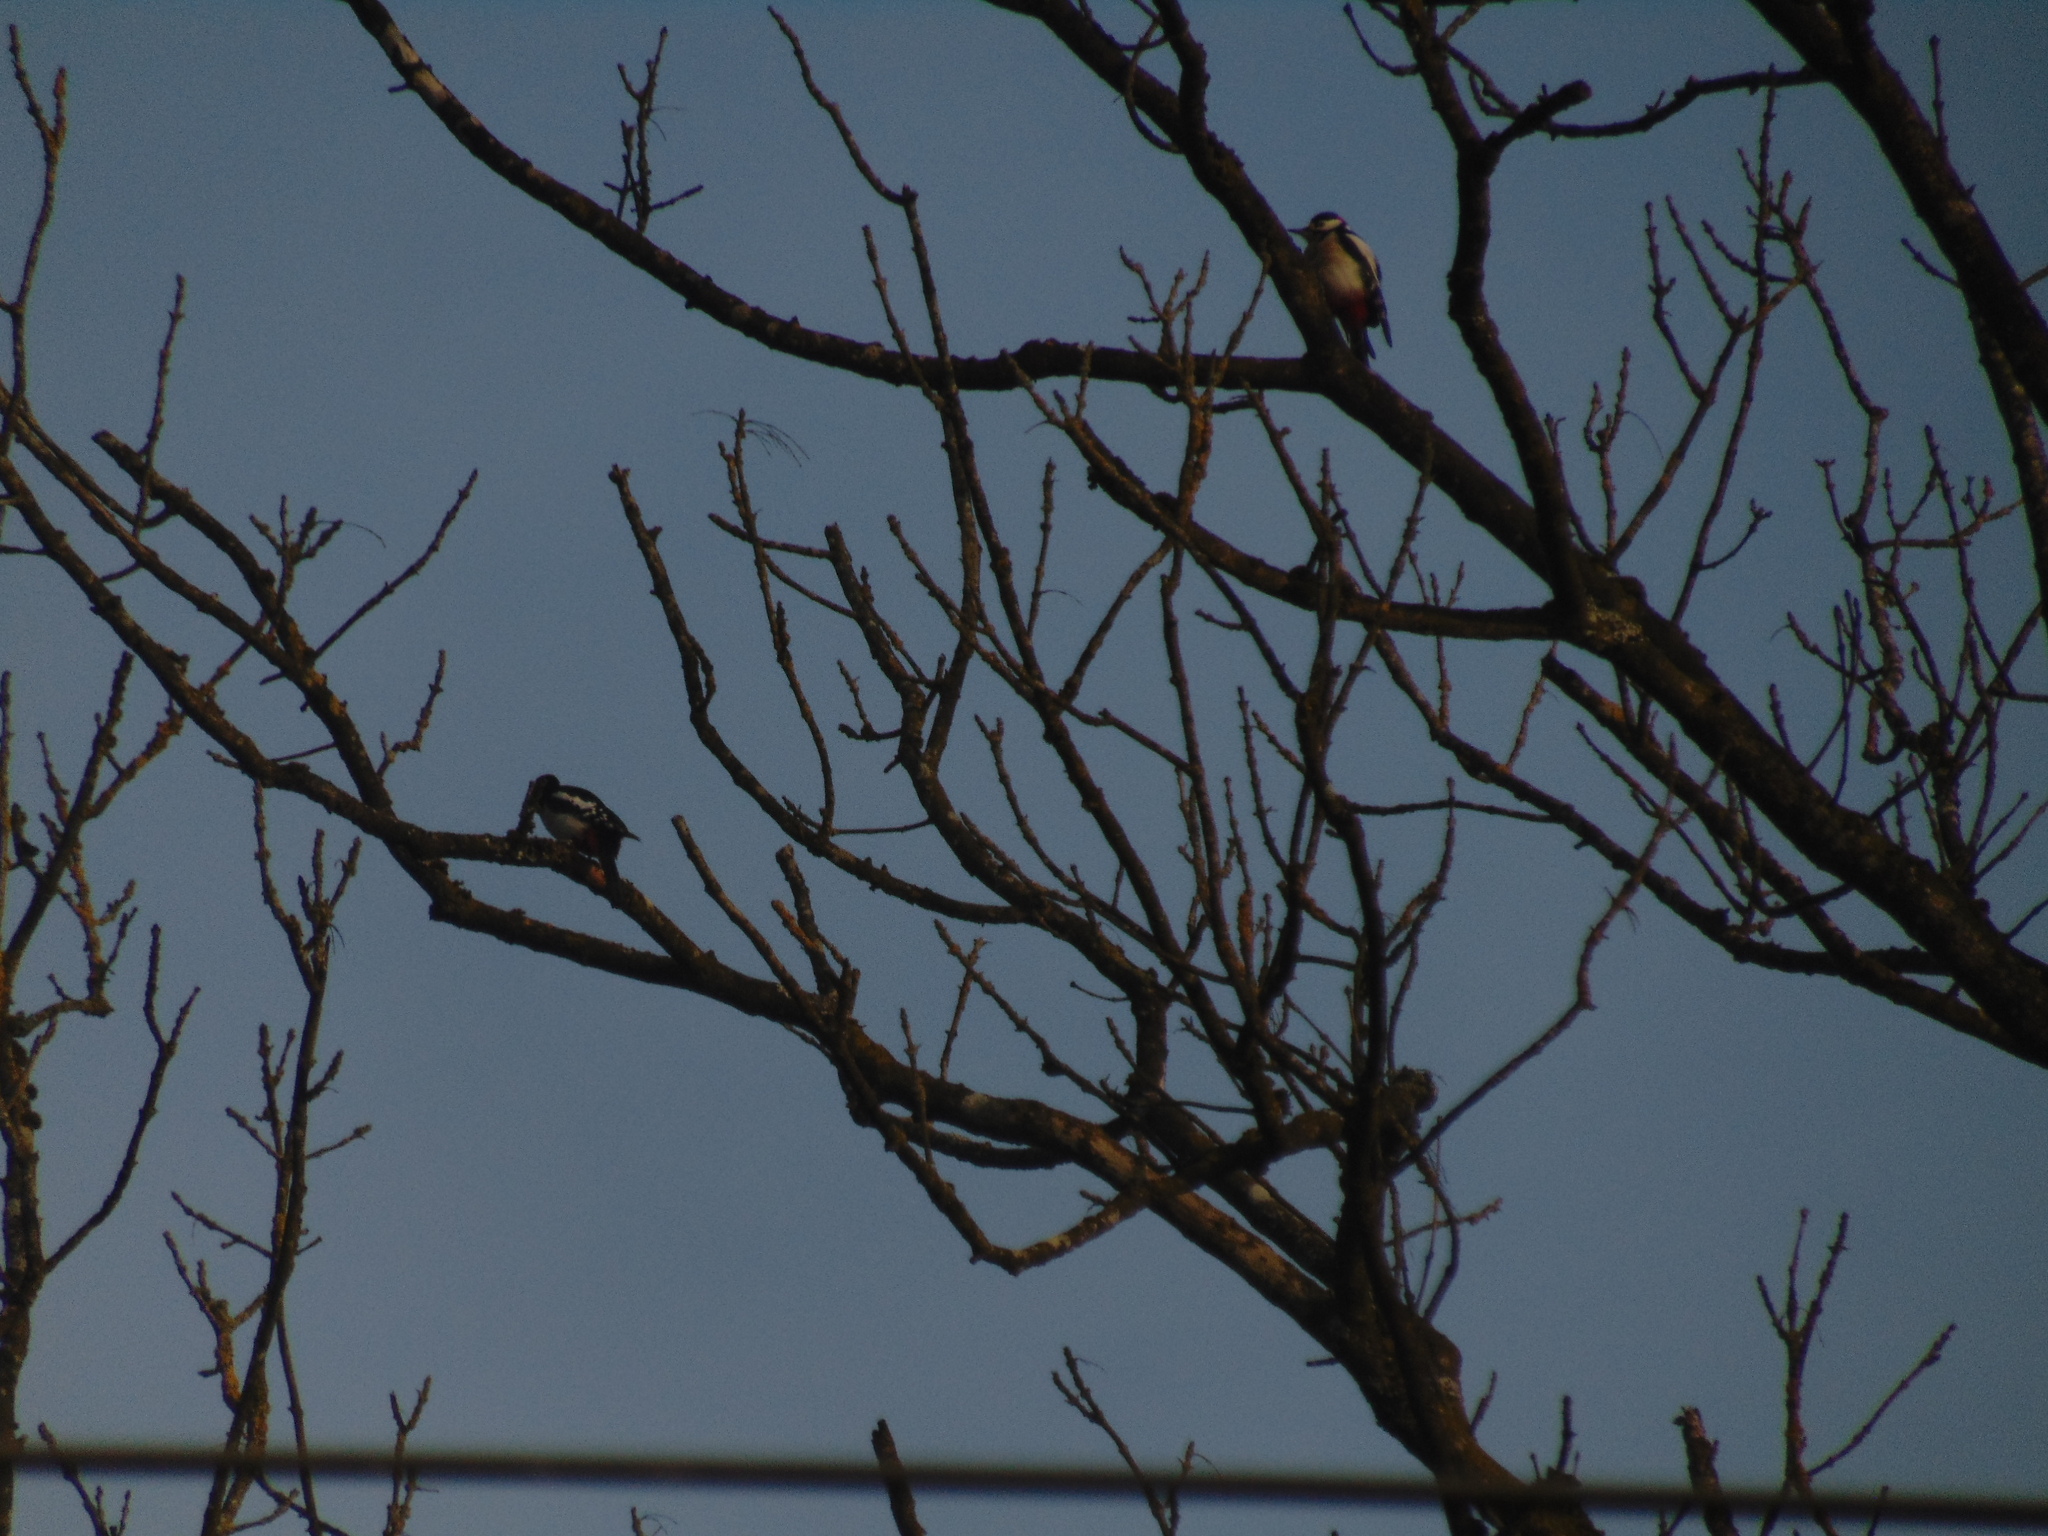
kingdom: Animalia
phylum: Chordata
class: Aves
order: Piciformes
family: Picidae
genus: Dendrocopos
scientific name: Dendrocopos major
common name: Great spotted woodpecker
